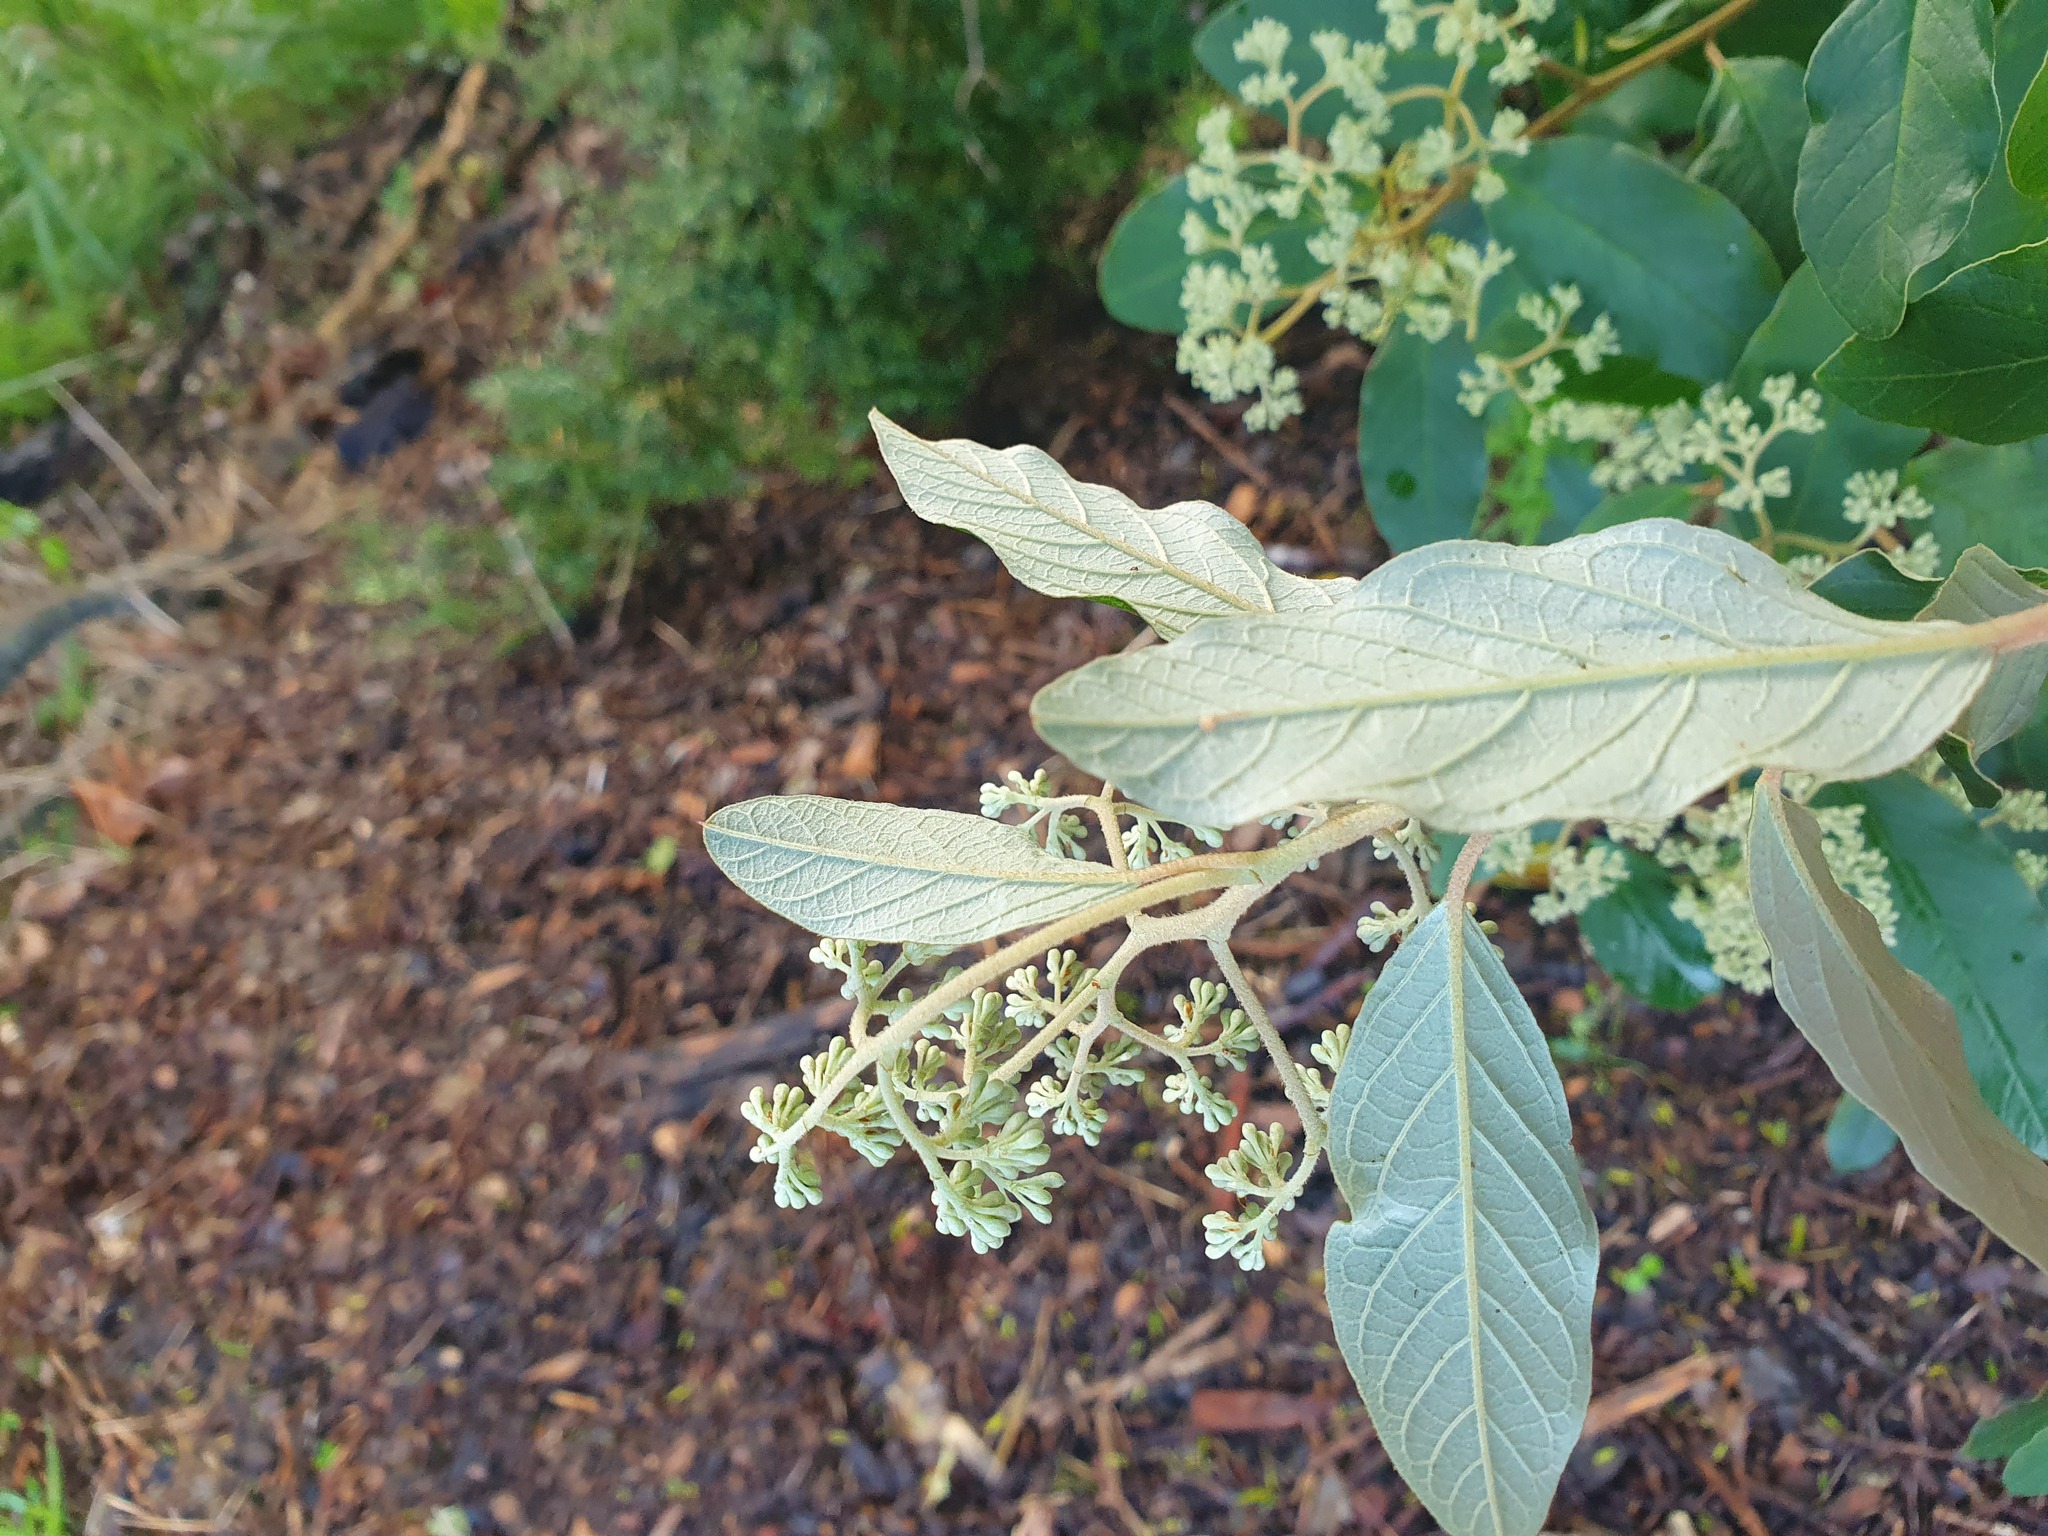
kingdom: Plantae
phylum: Tracheophyta
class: Magnoliopsida
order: Rosales
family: Rhamnaceae
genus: Pomaderris
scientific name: Pomaderris kumeraho
